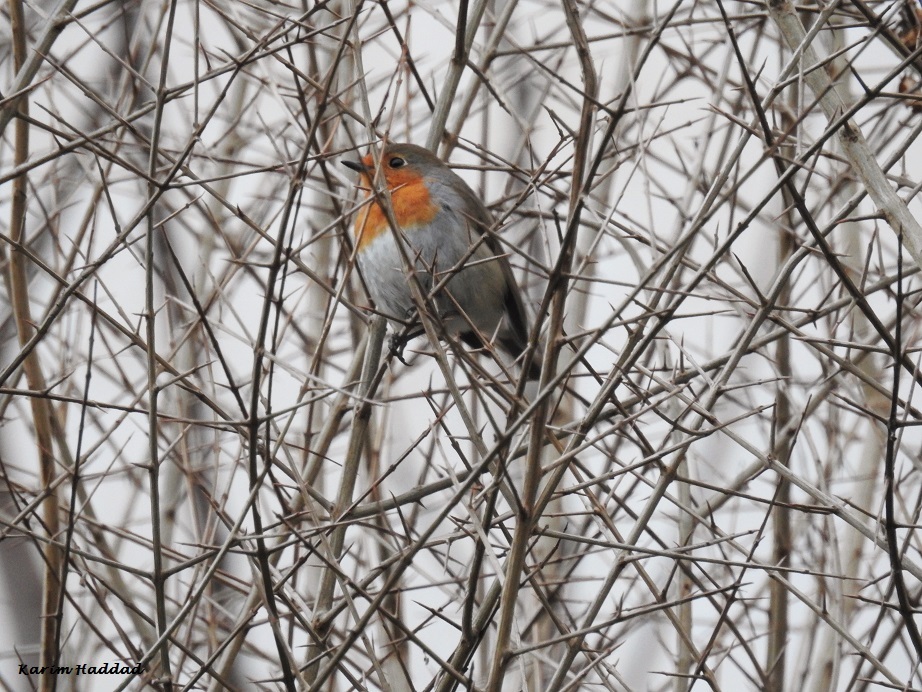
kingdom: Animalia
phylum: Chordata
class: Aves
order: Passeriformes
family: Muscicapidae
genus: Erithacus
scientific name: Erithacus rubecula
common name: European robin
